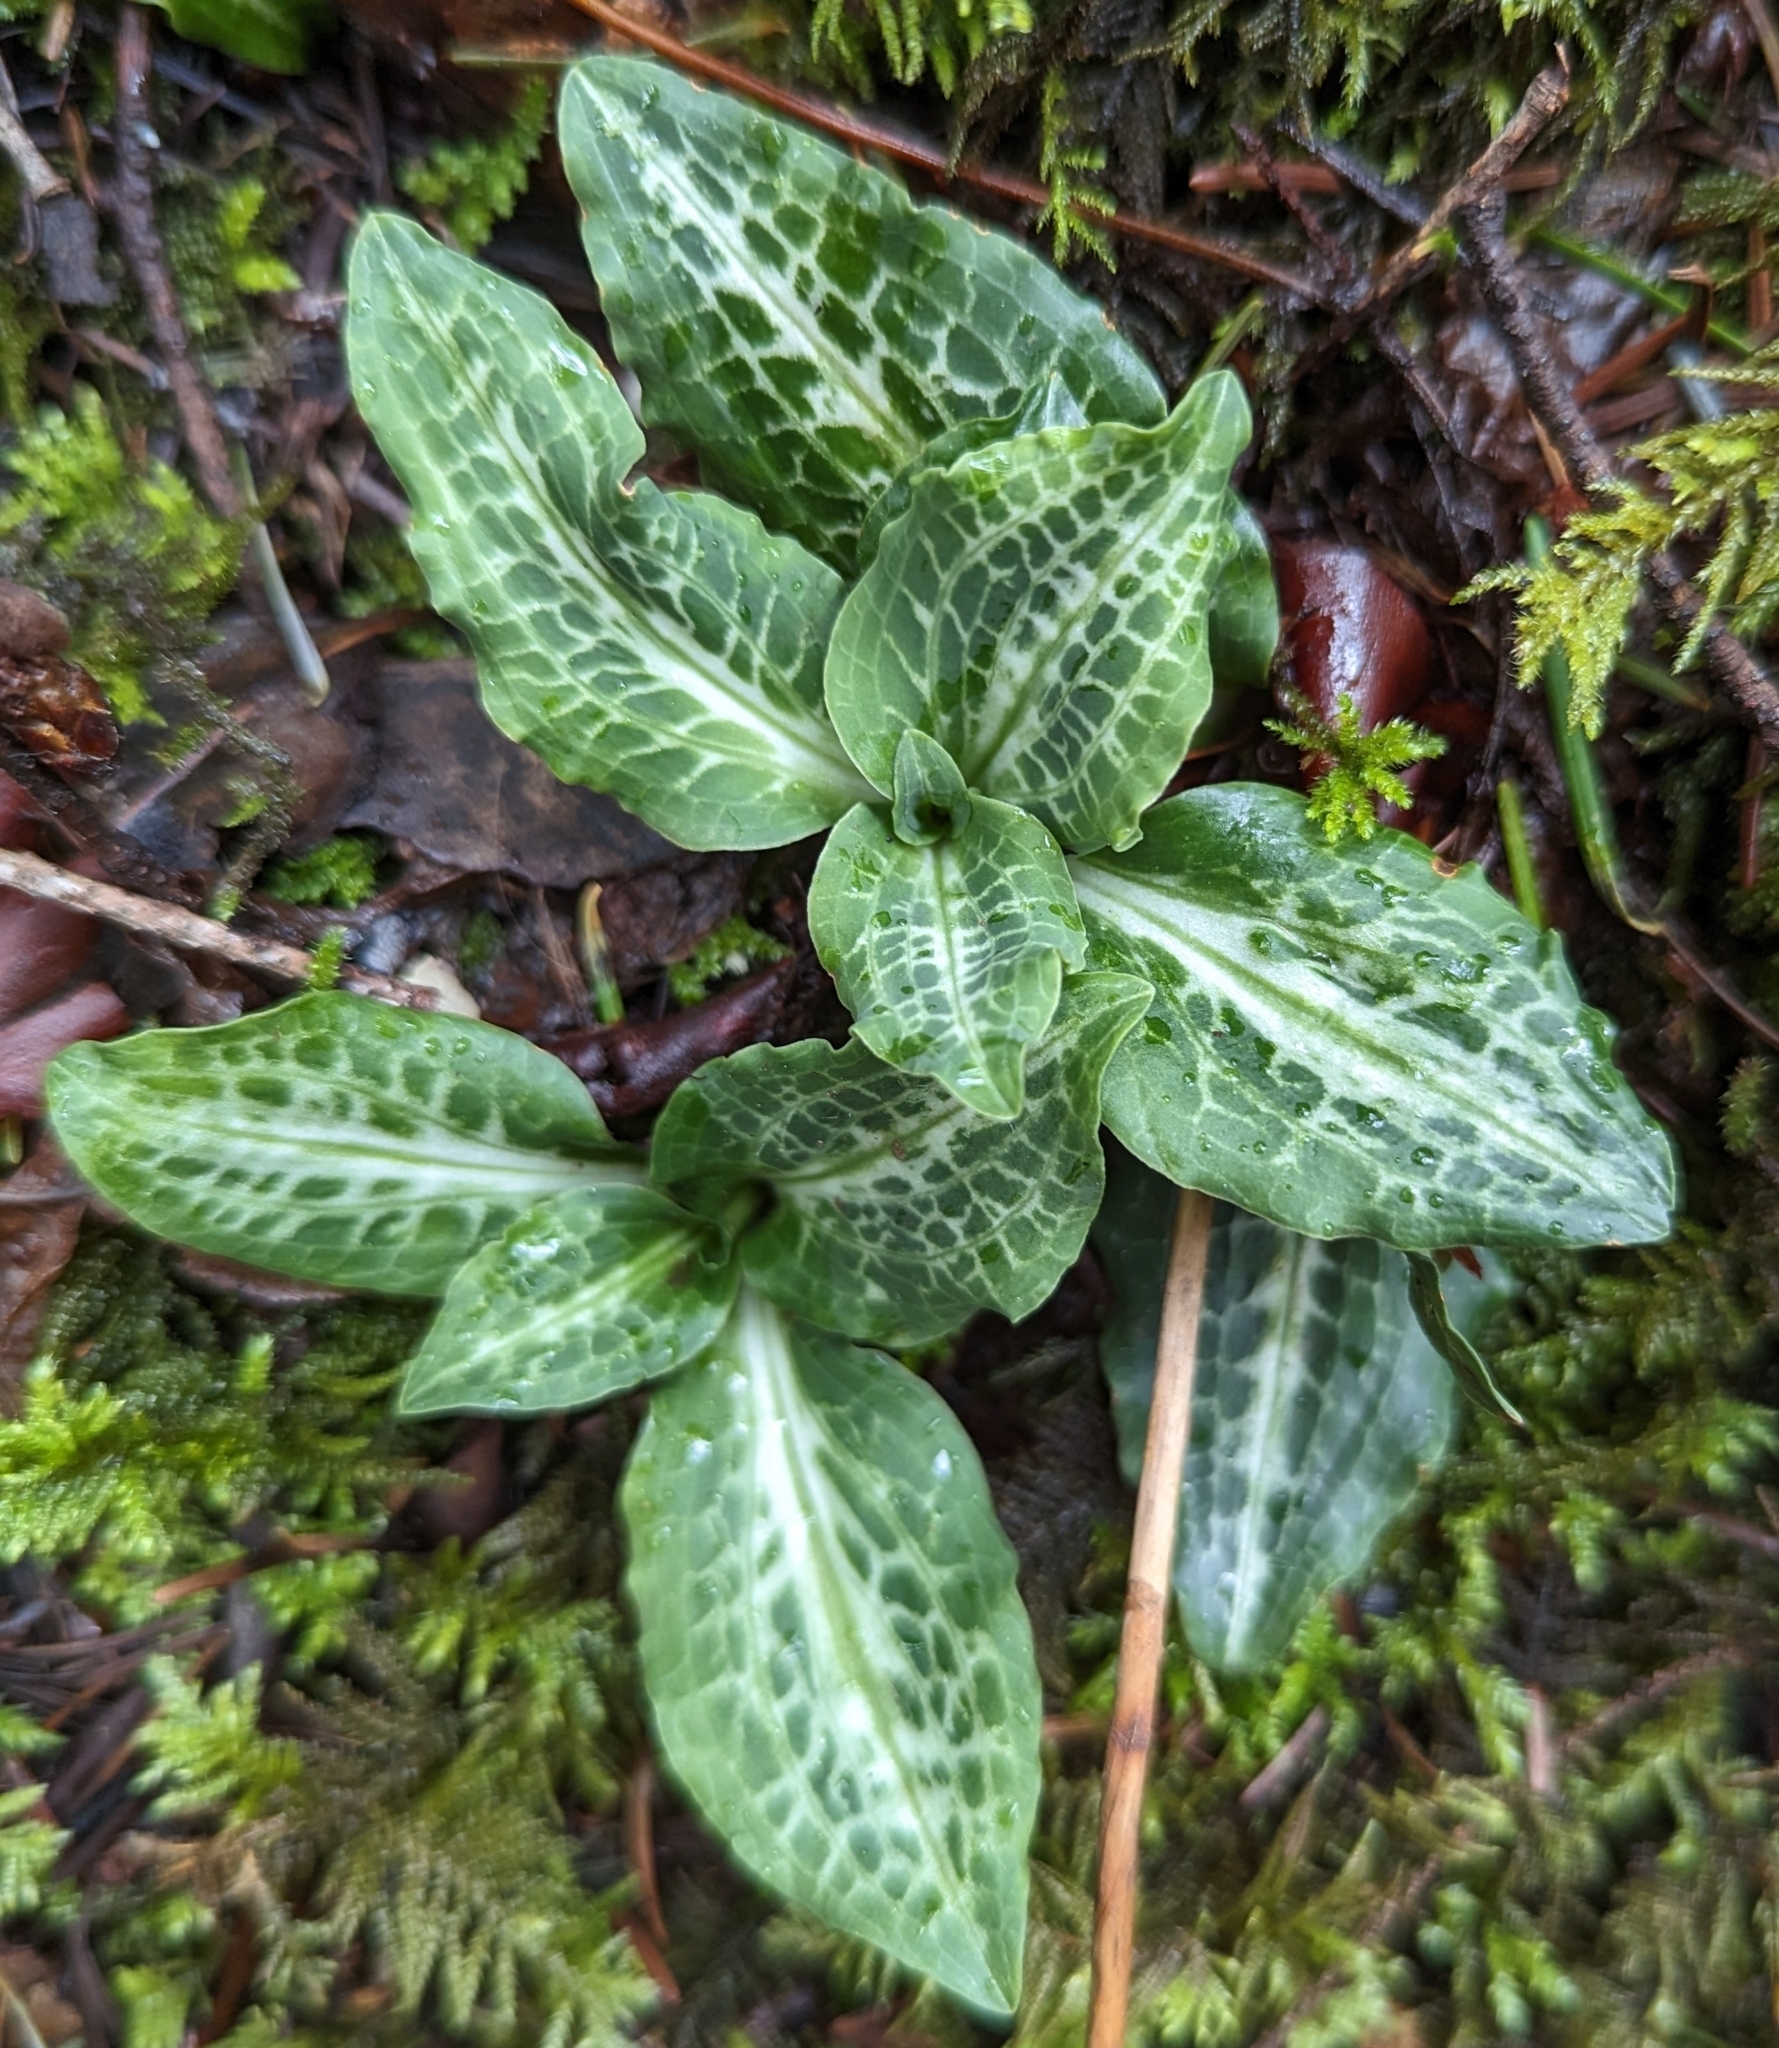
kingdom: Plantae
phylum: Tracheophyta
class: Liliopsida
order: Asparagales
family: Orchidaceae
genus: Goodyera
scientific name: Goodyera oblongifolia
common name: Giant rattlesnake-plantain
